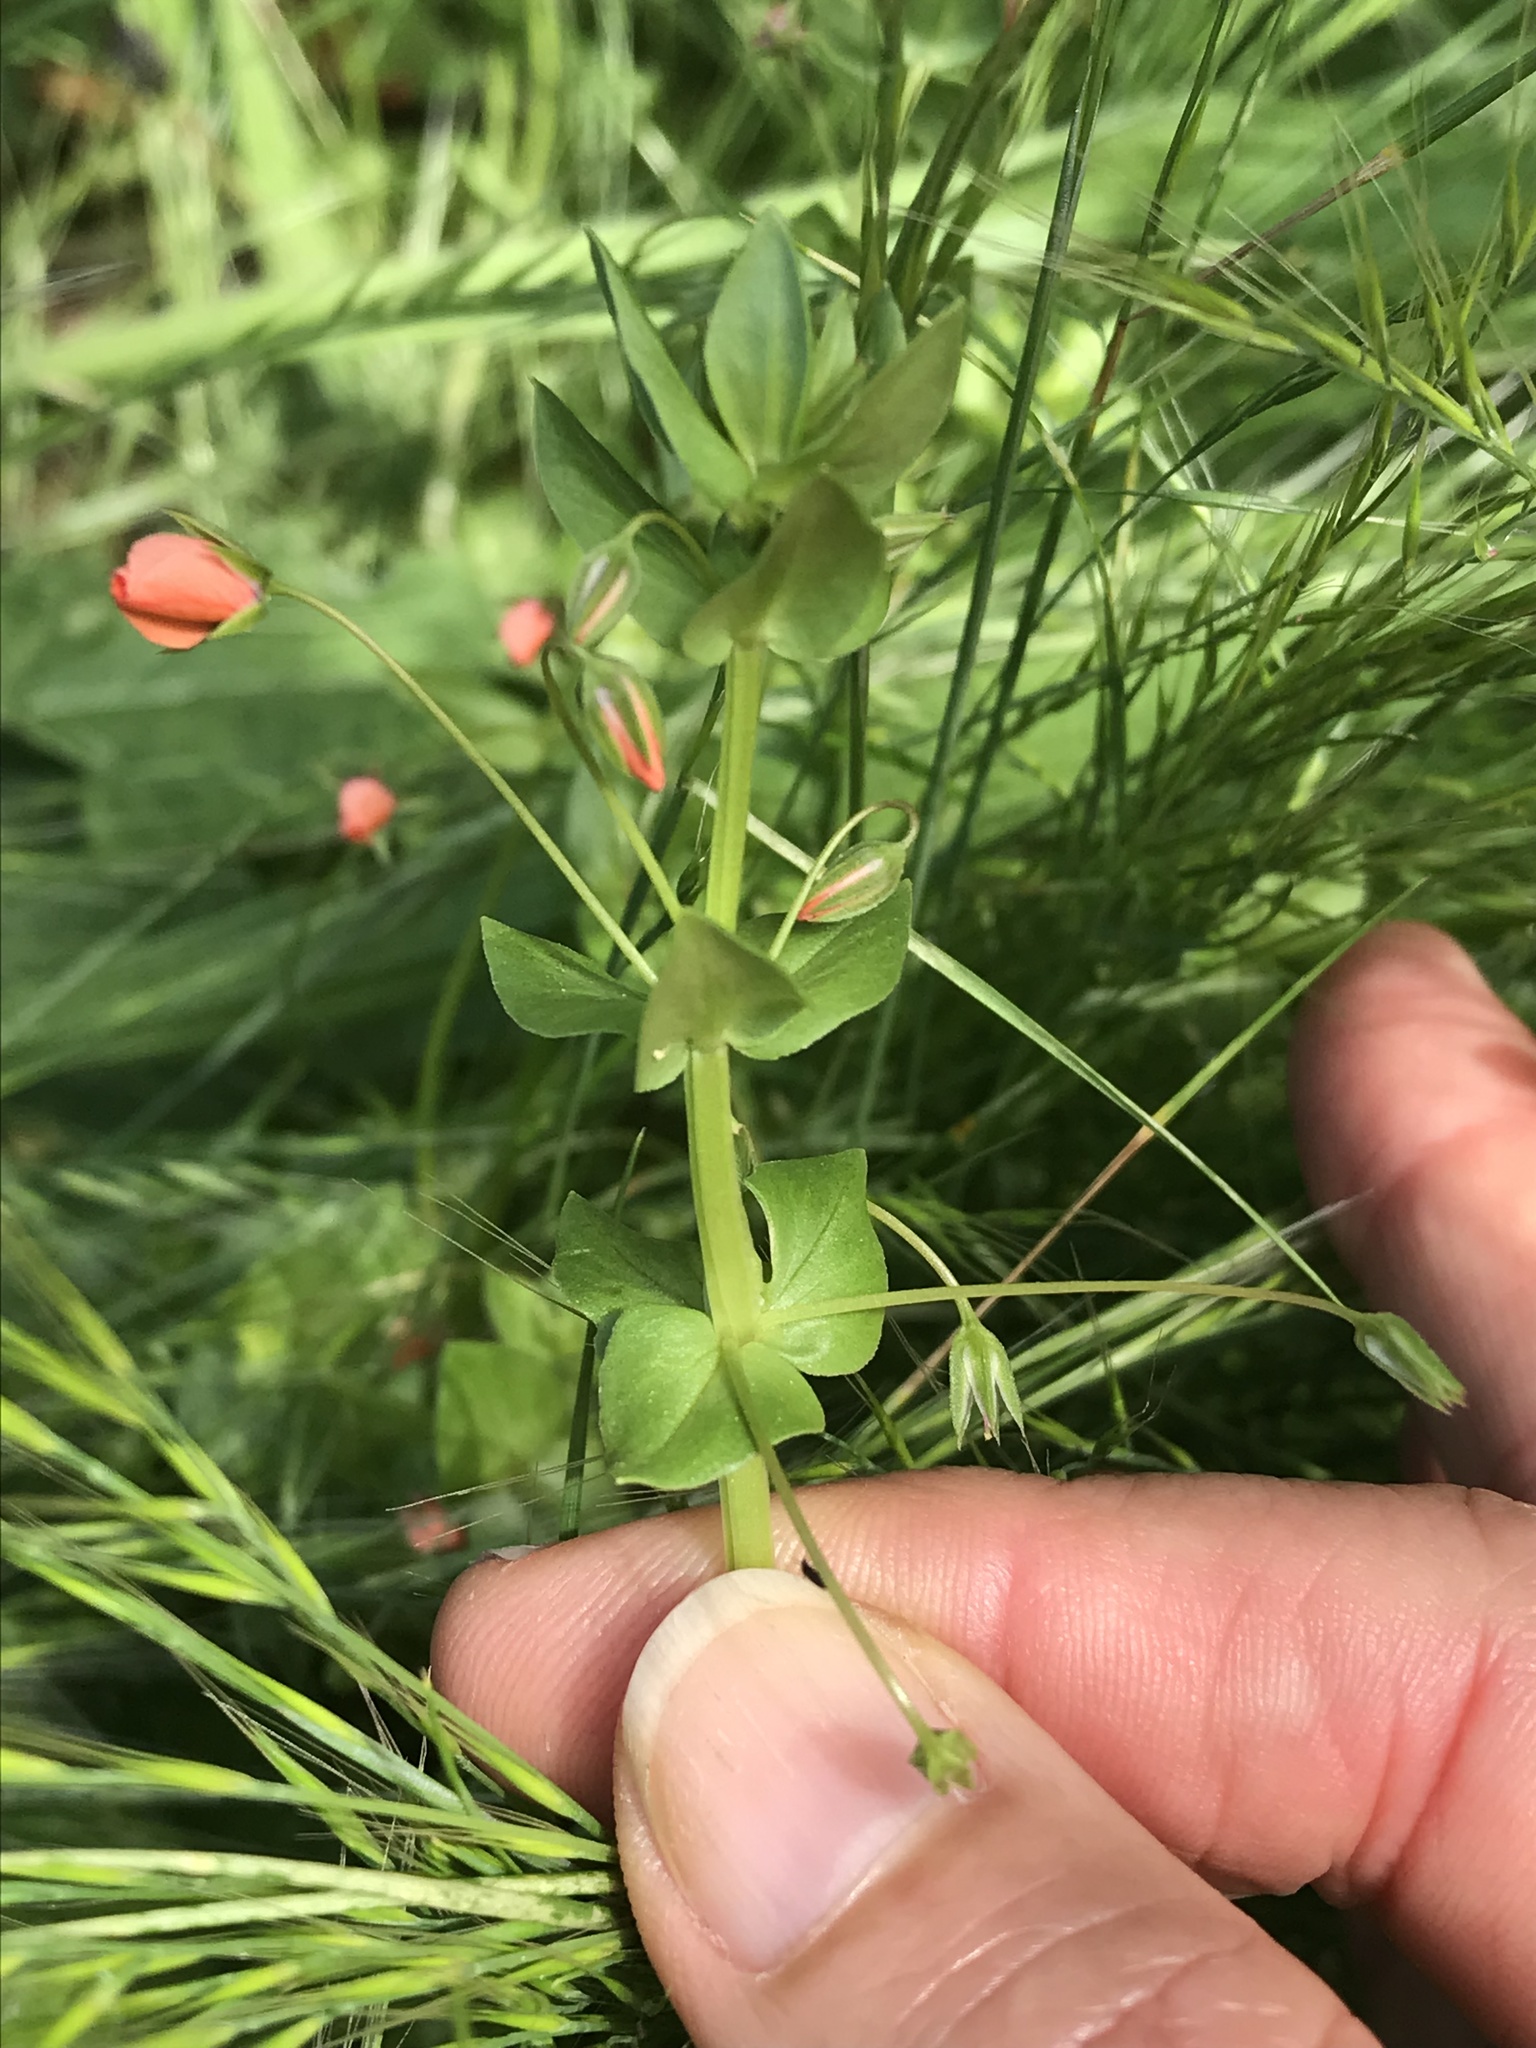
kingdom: Plantae
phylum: Tracheophyta
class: Magnoliopsida
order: Ericales
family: Primulaceae
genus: Lysimachia
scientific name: Lysimachia arvensis
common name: Scarlet pimpernel
